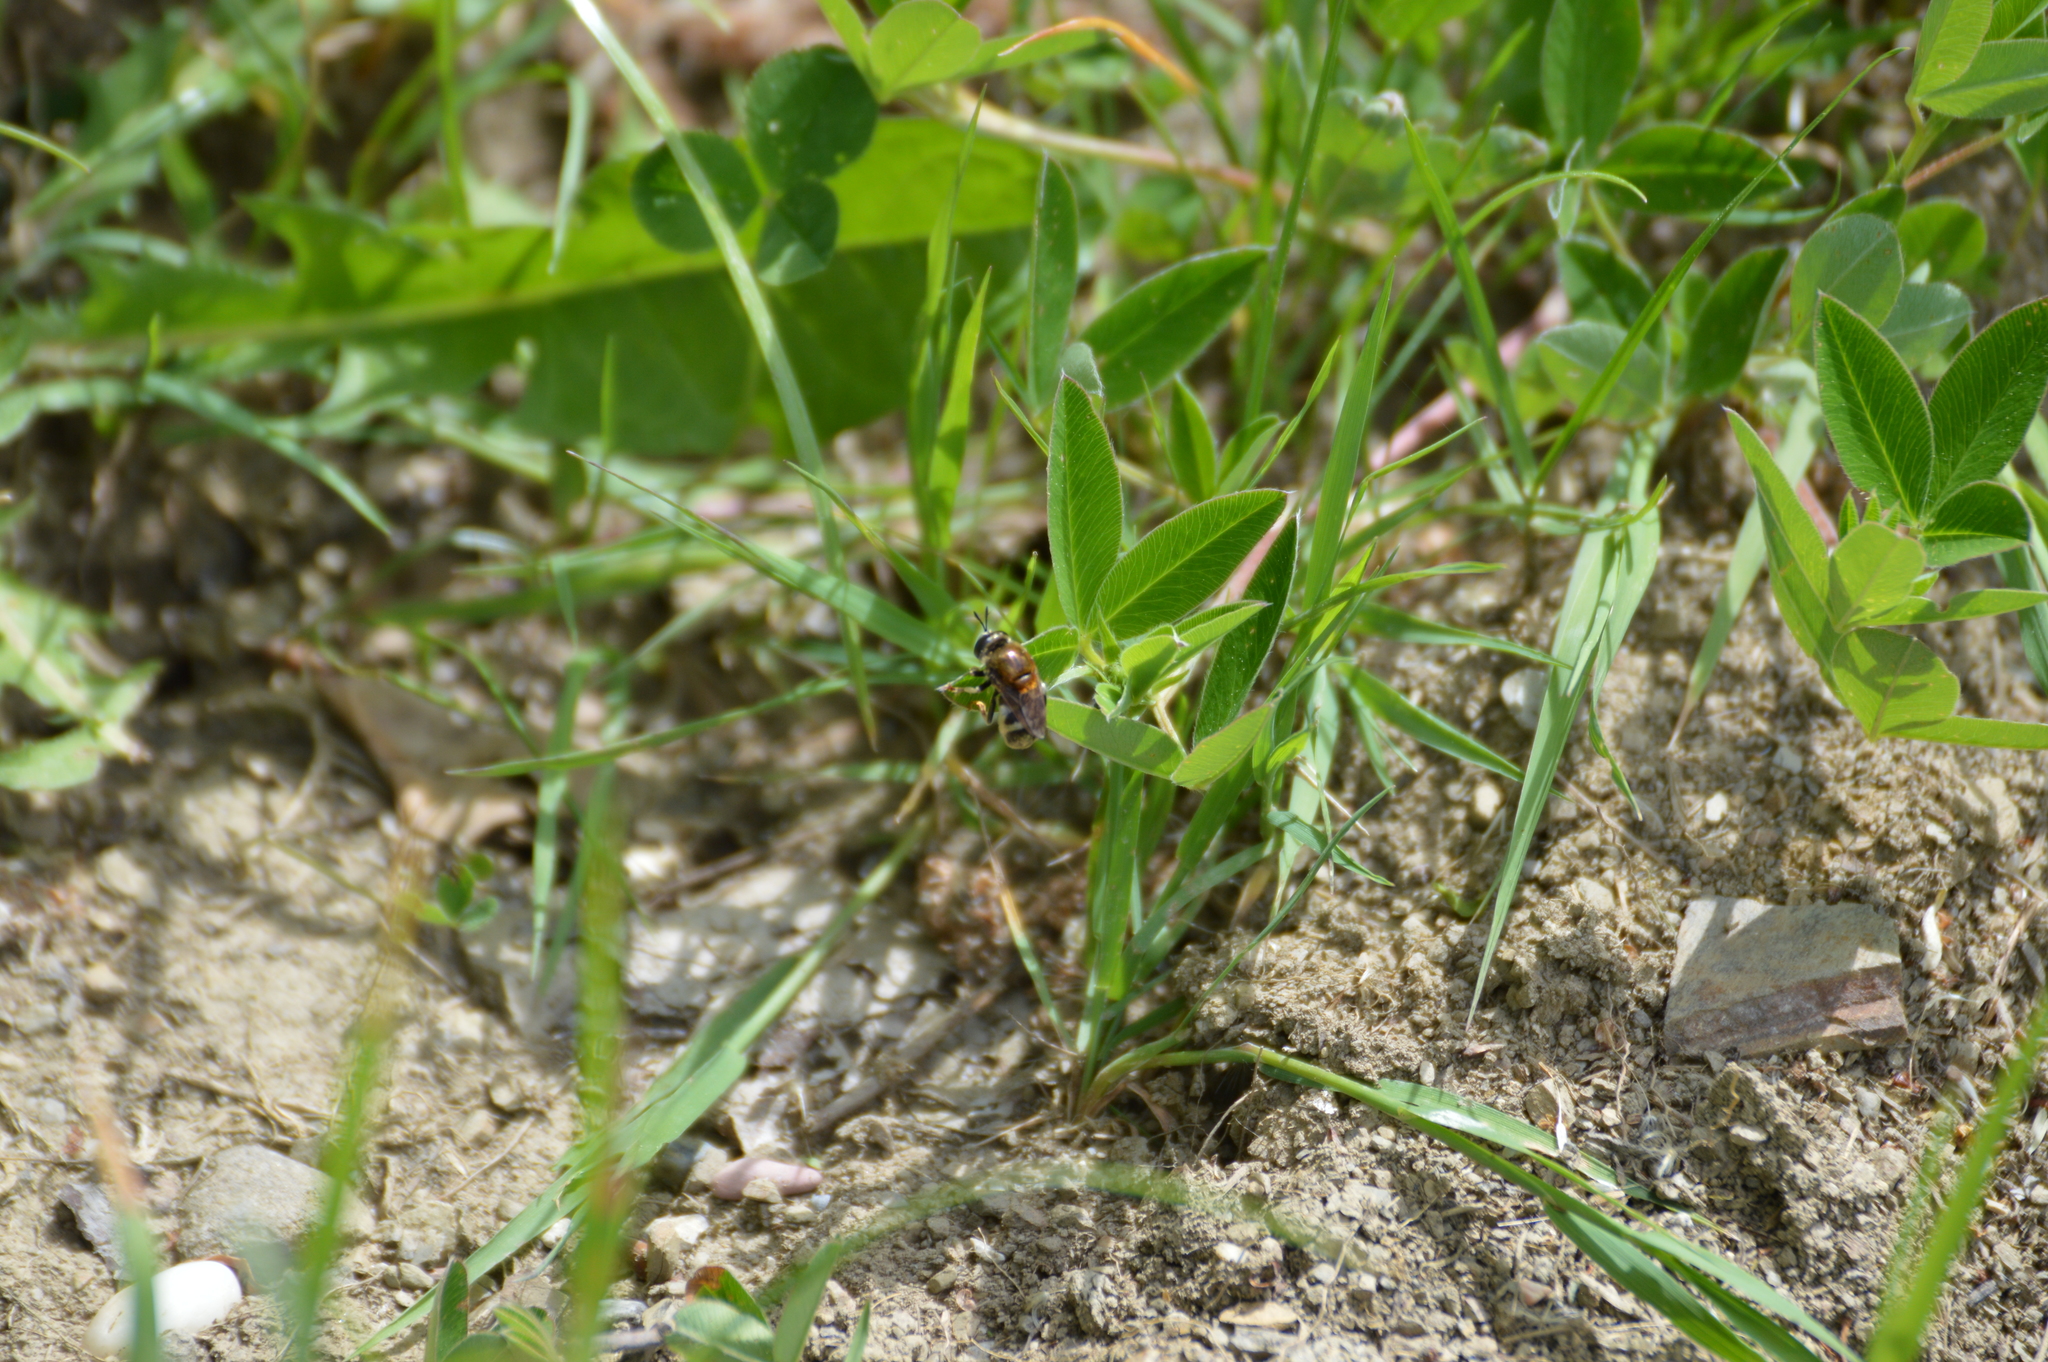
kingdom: Animalia
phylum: Arthropoda
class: Insecta
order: Diptera
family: Syrphidae
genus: Microdon
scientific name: Microdon
